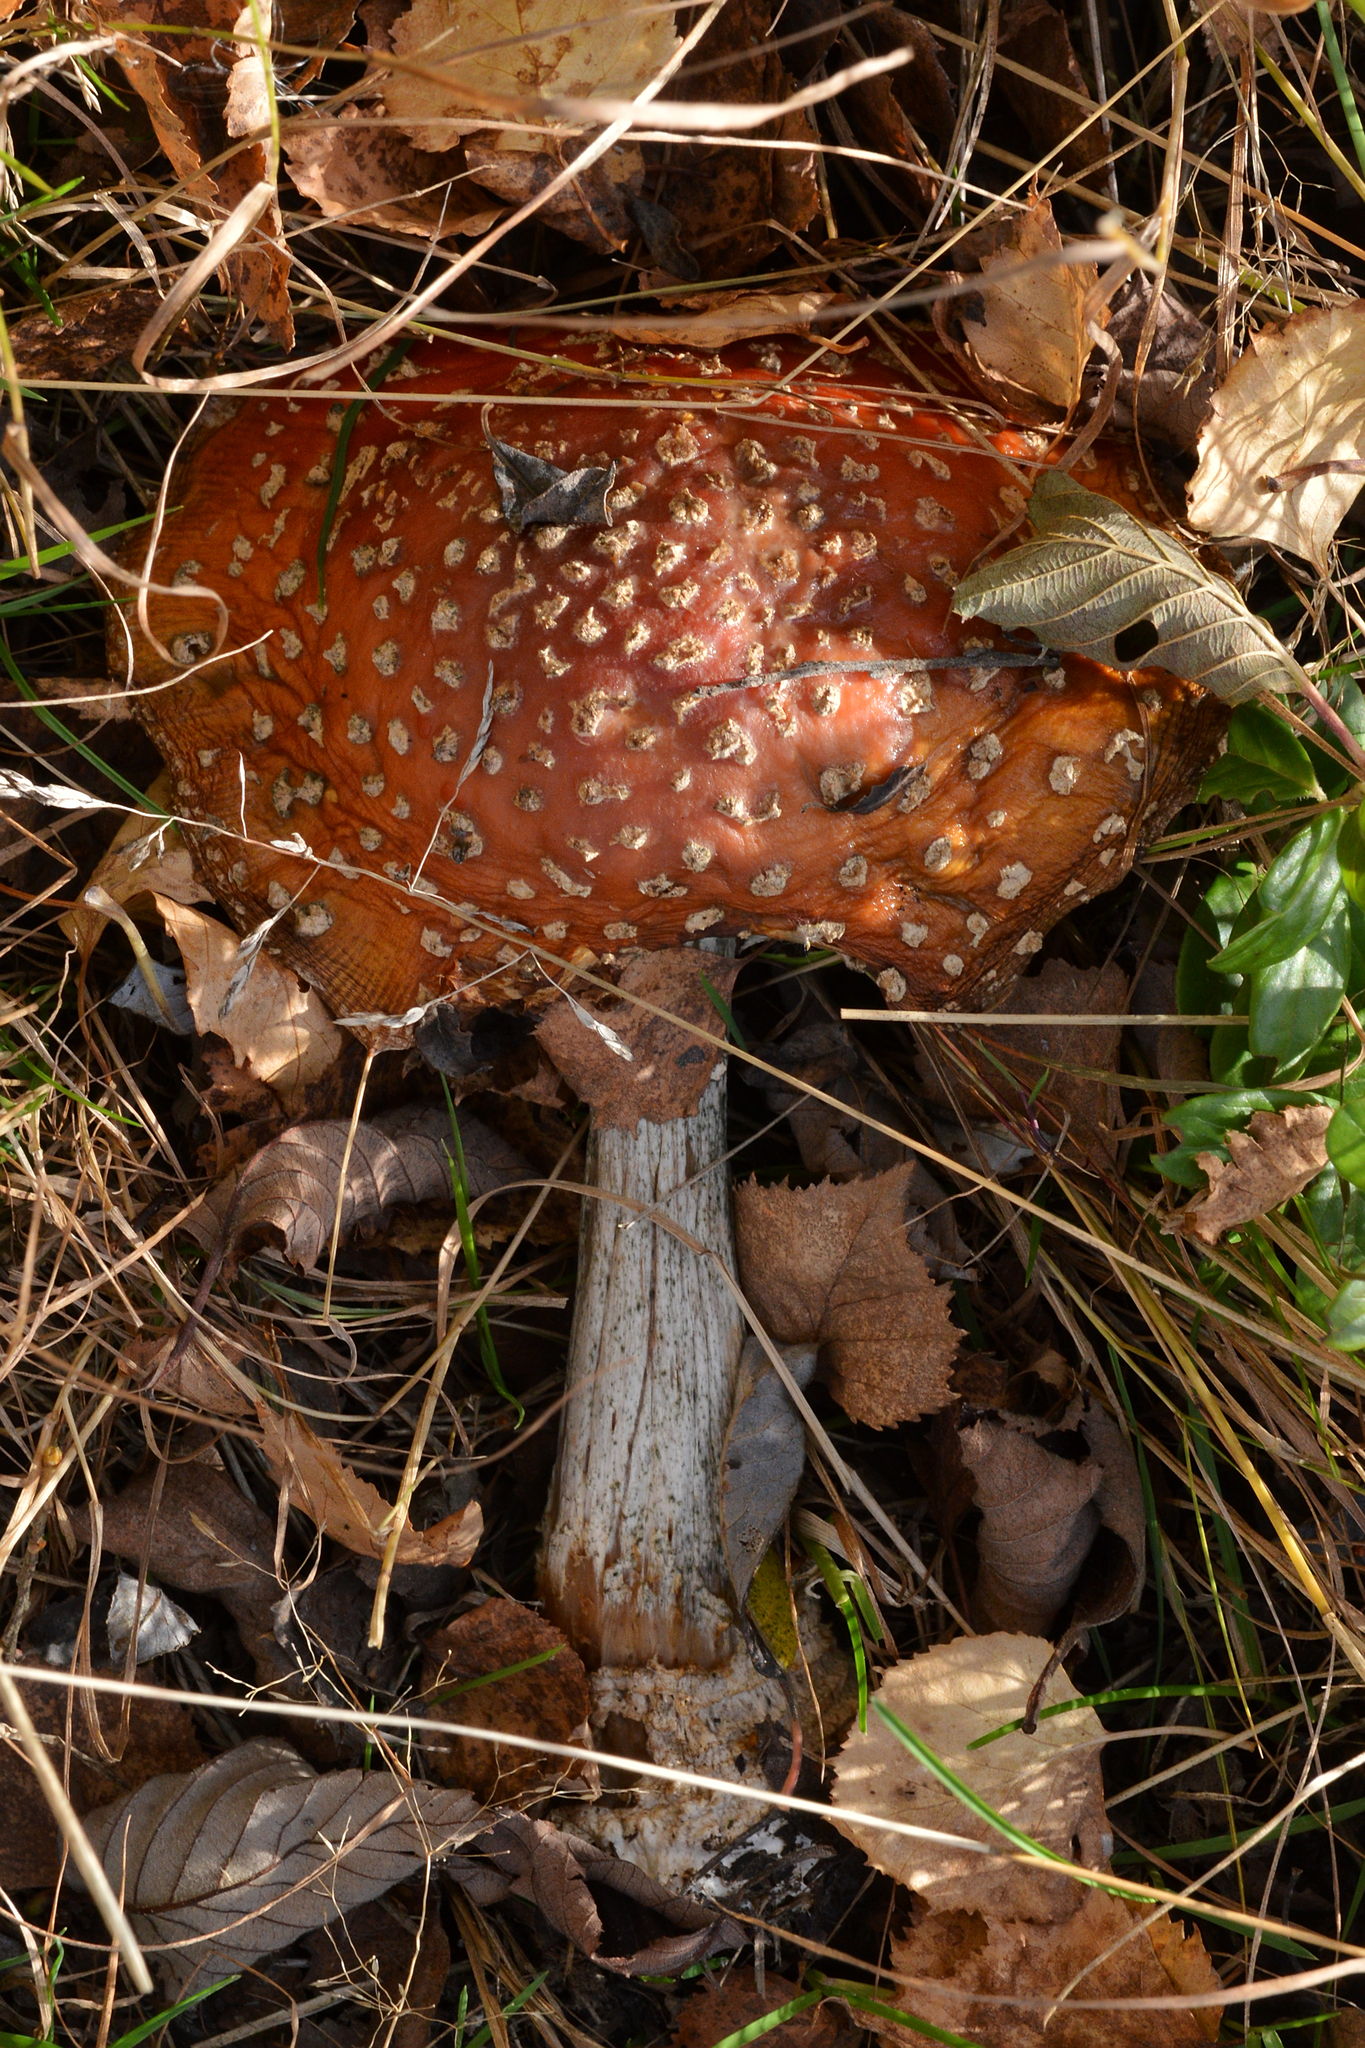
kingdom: Fungi
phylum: Basidiomycota
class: Agaricomycetes
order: Agaricales
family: Amanitaceae
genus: Amanita
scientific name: Amanita muscaria
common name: Fly agaric
